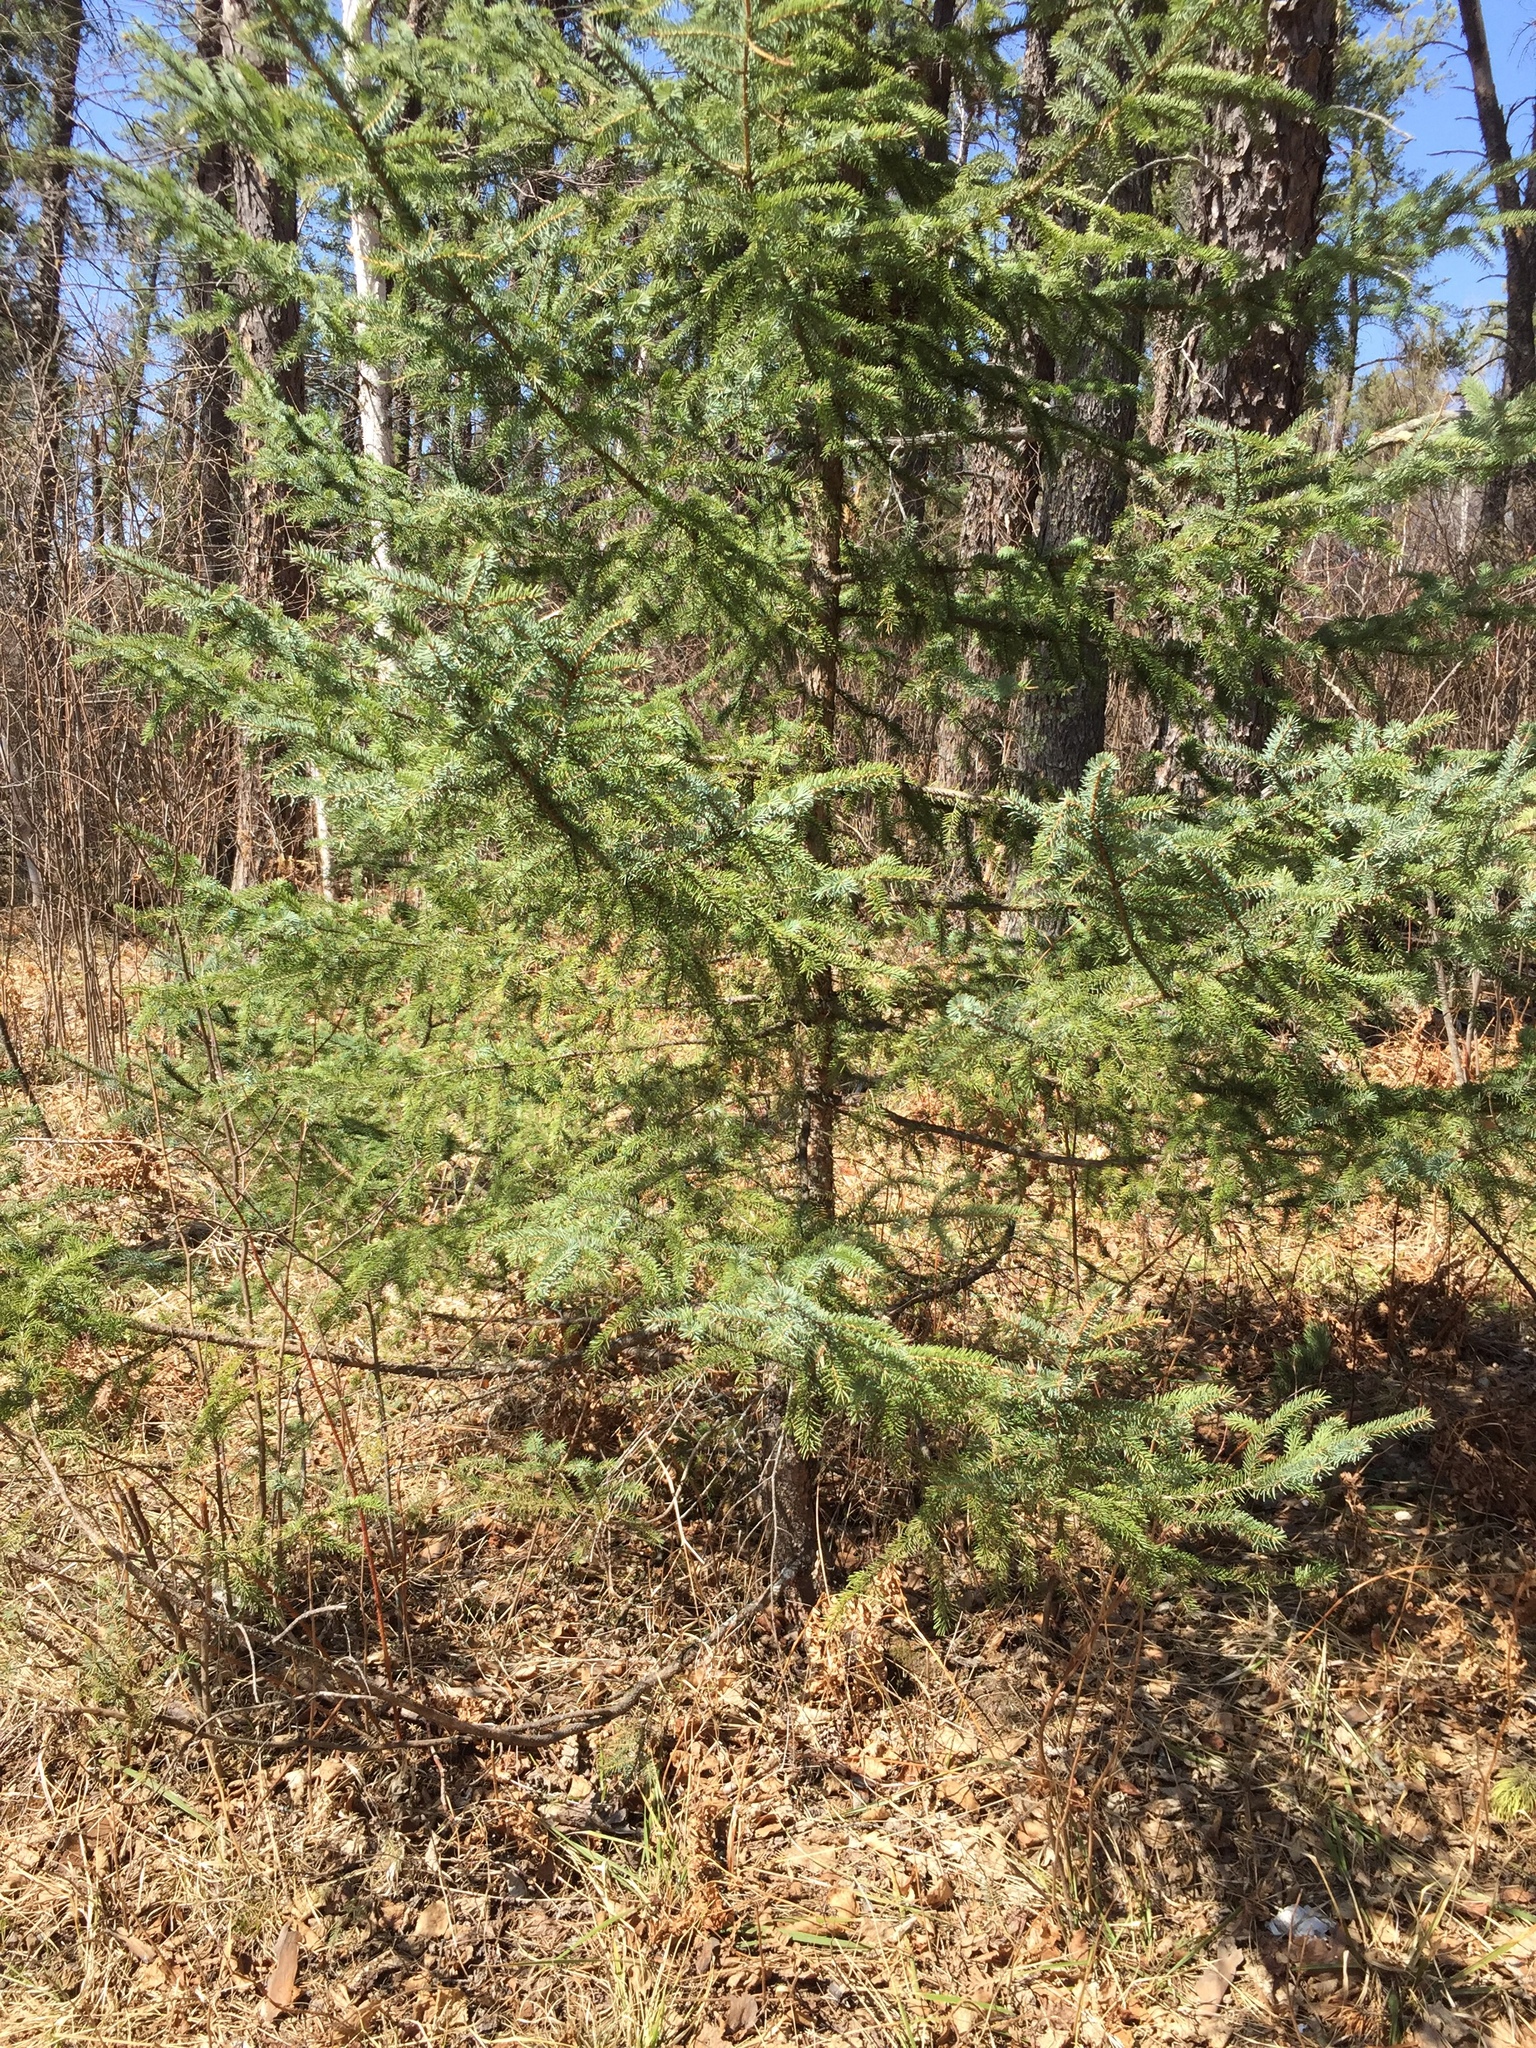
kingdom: Plantae
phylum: Tracheophyta
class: Pinopsida
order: Pinales
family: Pinaceae
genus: Picea
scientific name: Picea glauca
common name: White spruce
